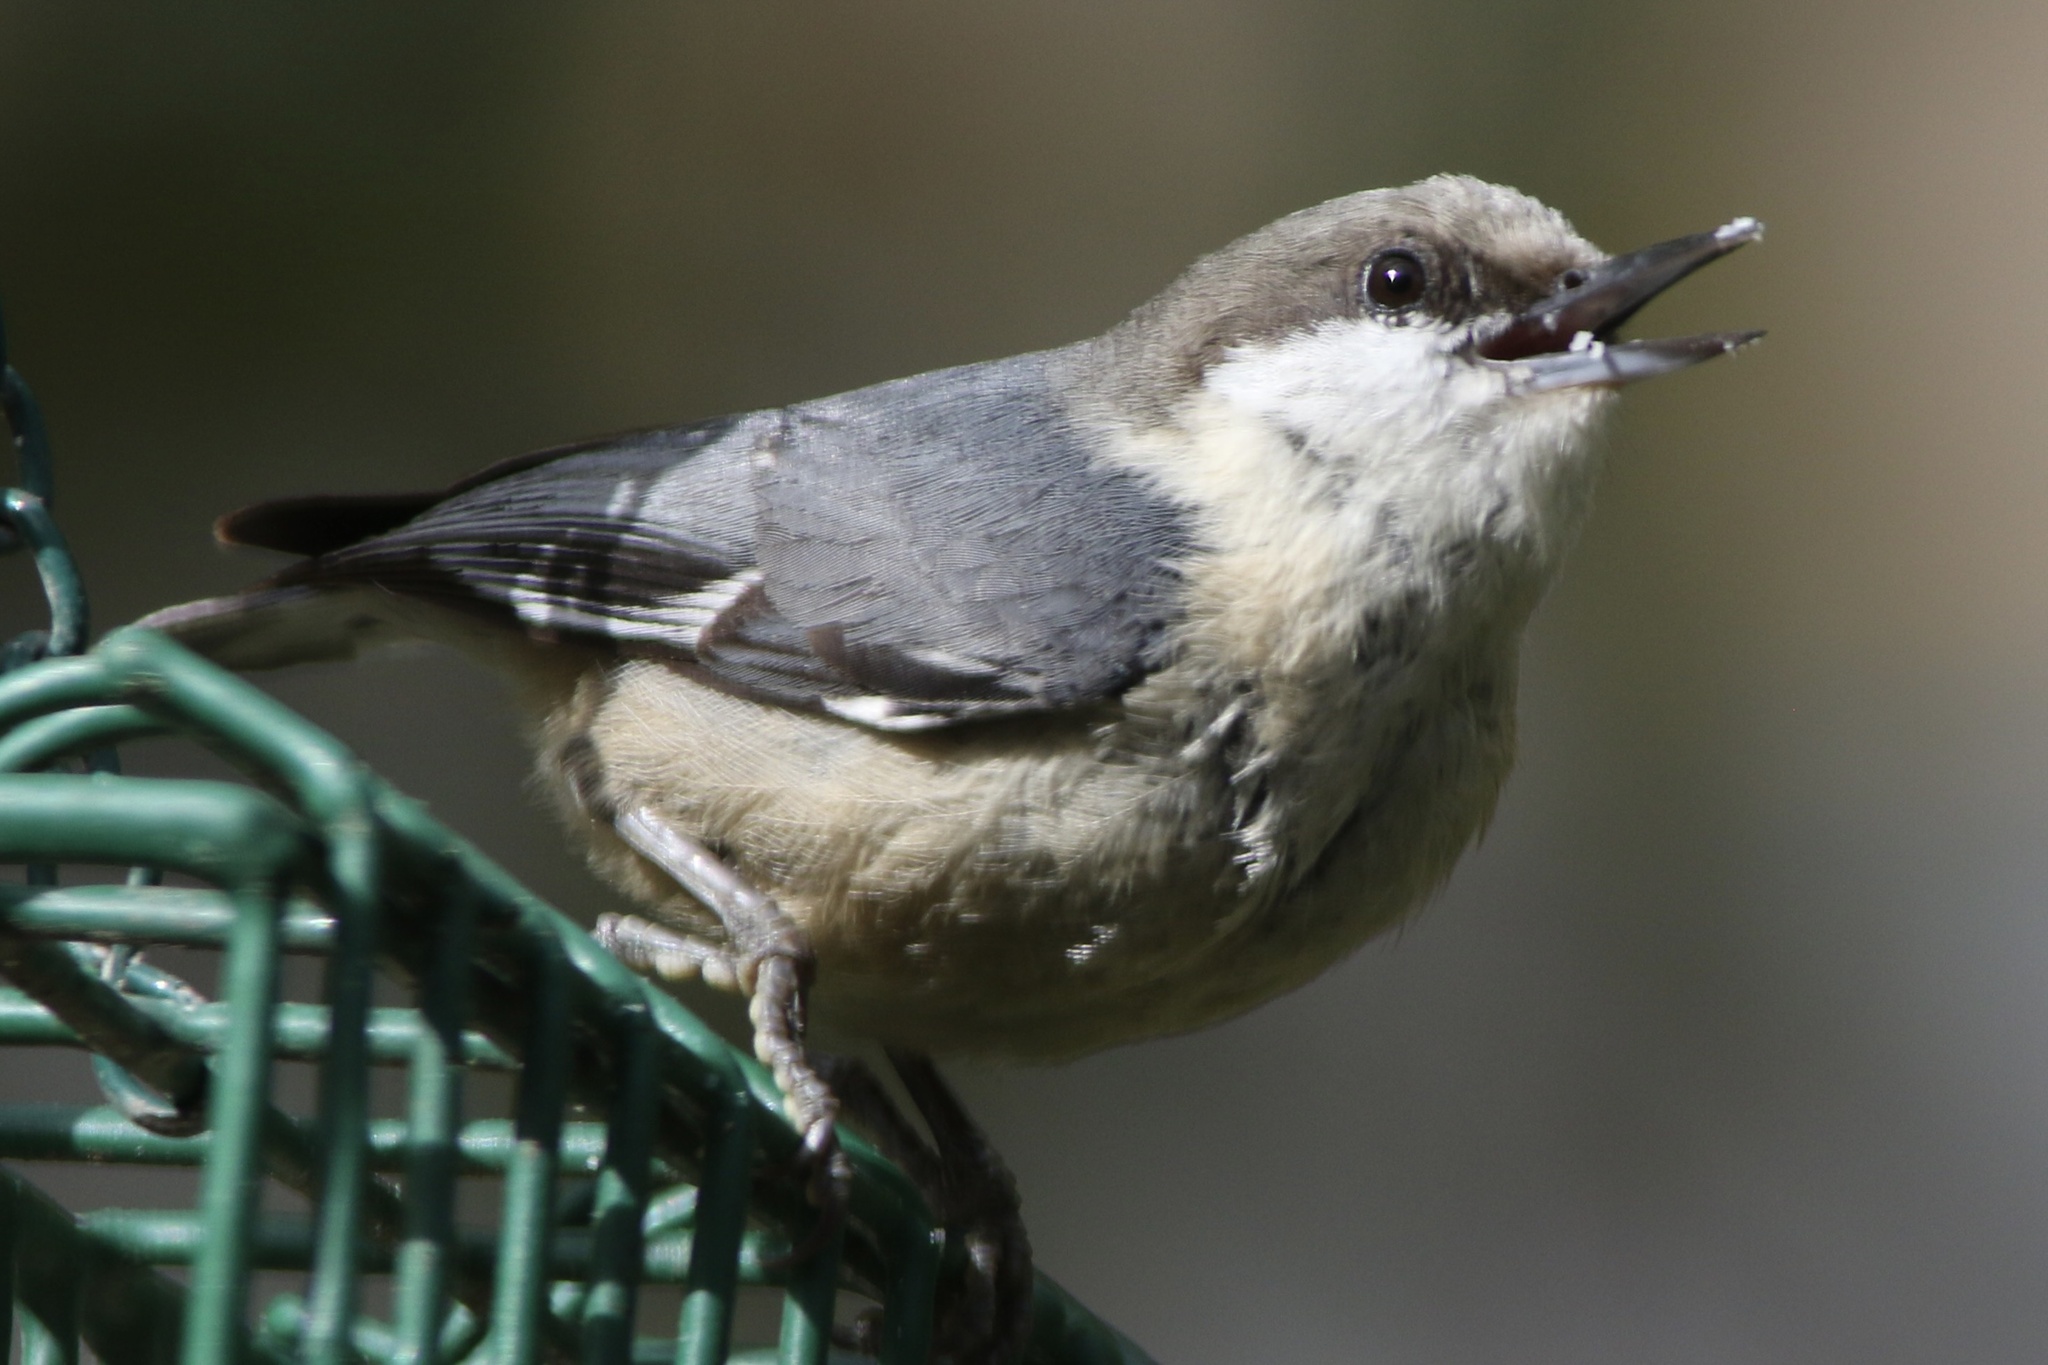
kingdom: Animalia
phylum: Chordata
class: Aves
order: Passeriformes
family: Sittidae
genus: Sitta
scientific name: Sitta pygmaea
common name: Pygmy nuthatch
